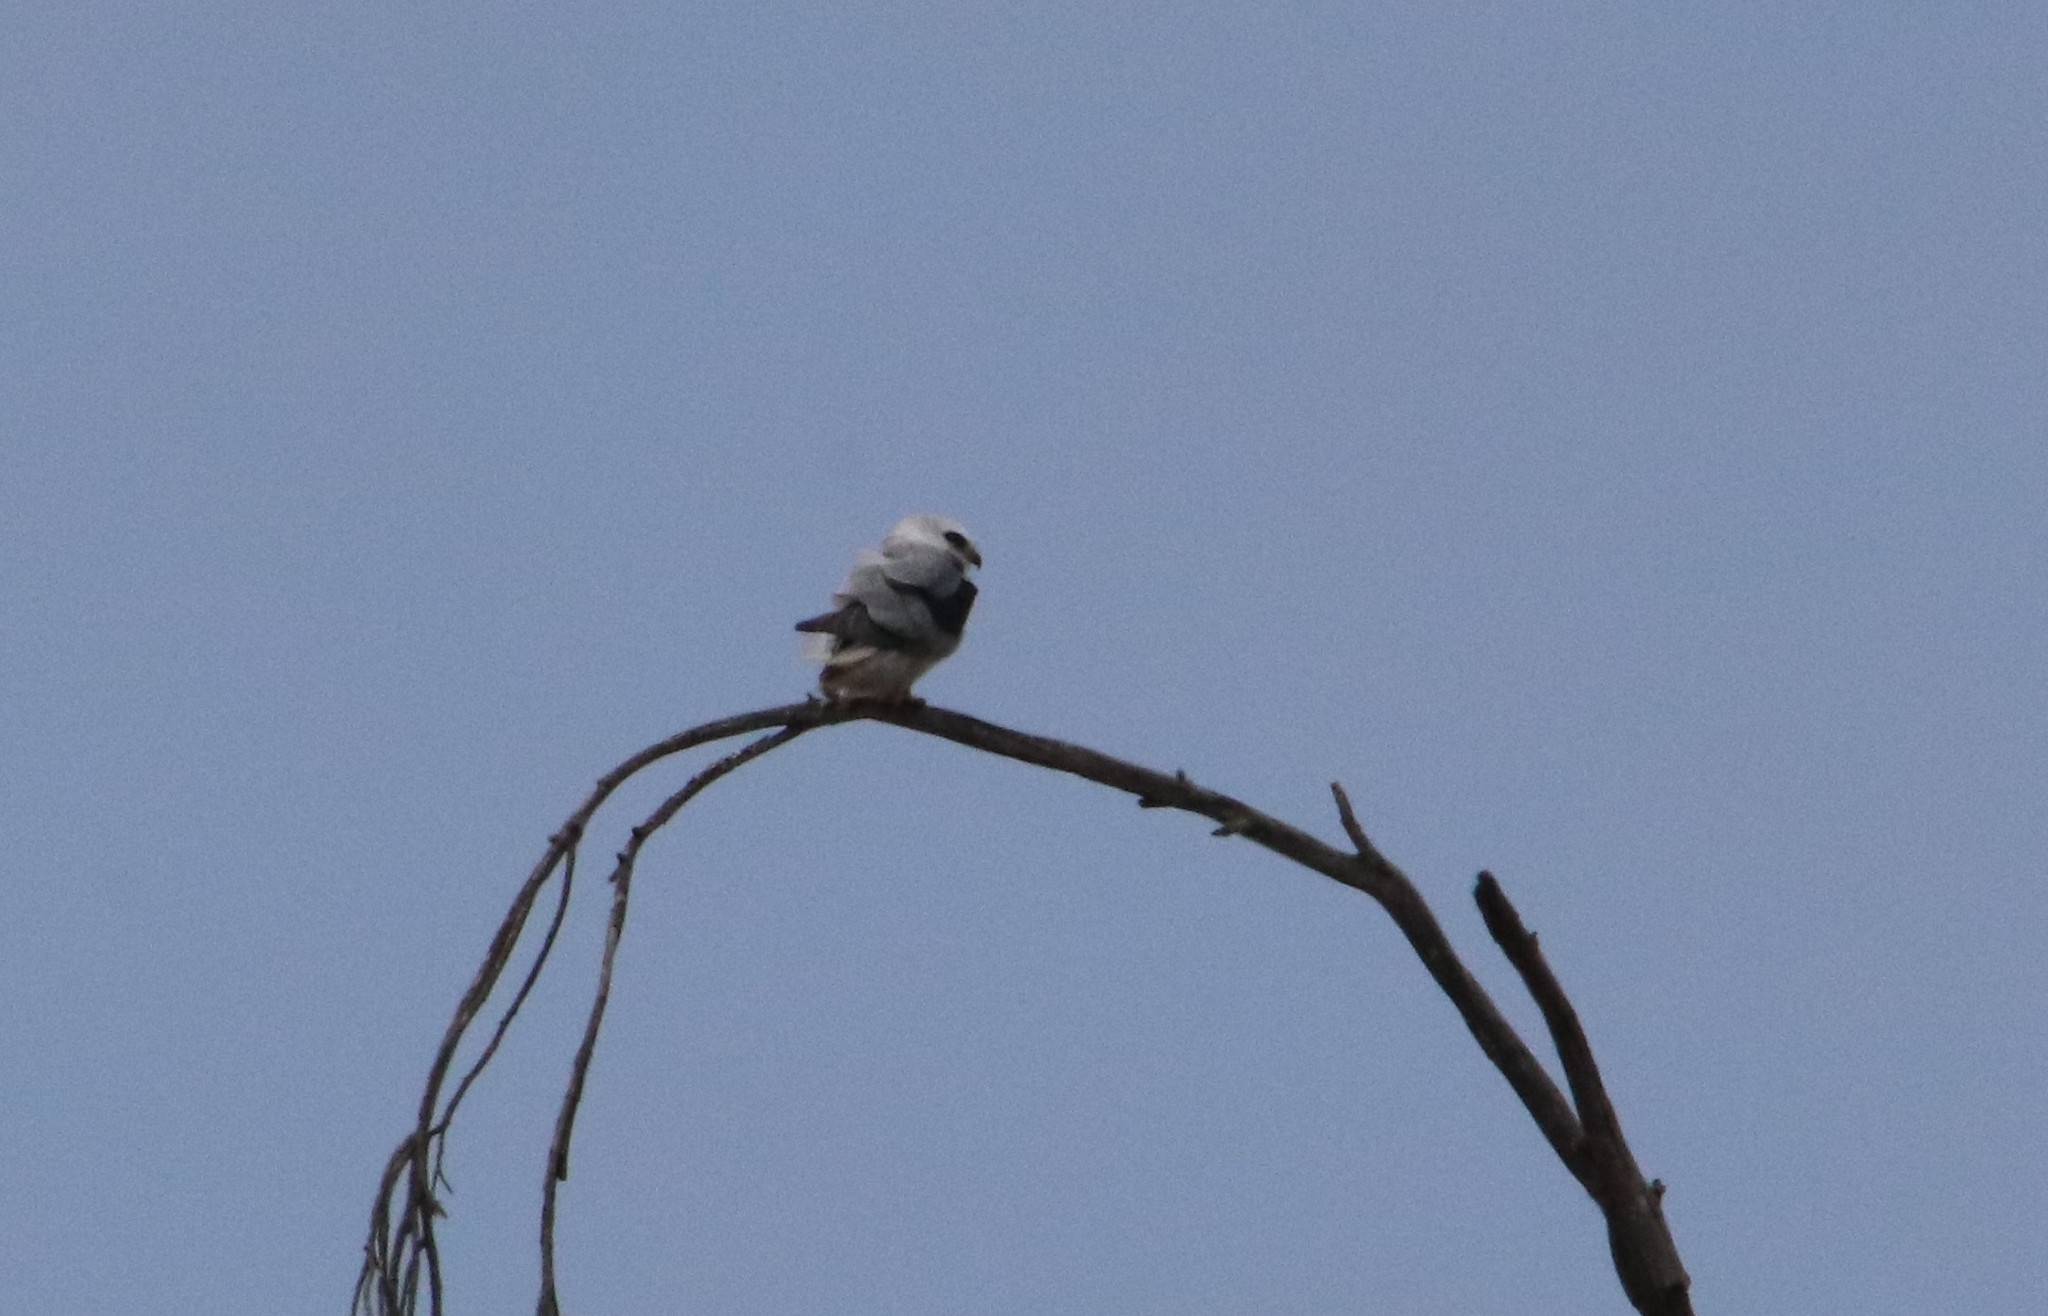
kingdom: Animalia
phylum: Chordata
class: Aves
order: Accipitriformes
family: Accipitridae
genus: Elanus
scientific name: Elanus leucurus
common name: White-tailed kite
